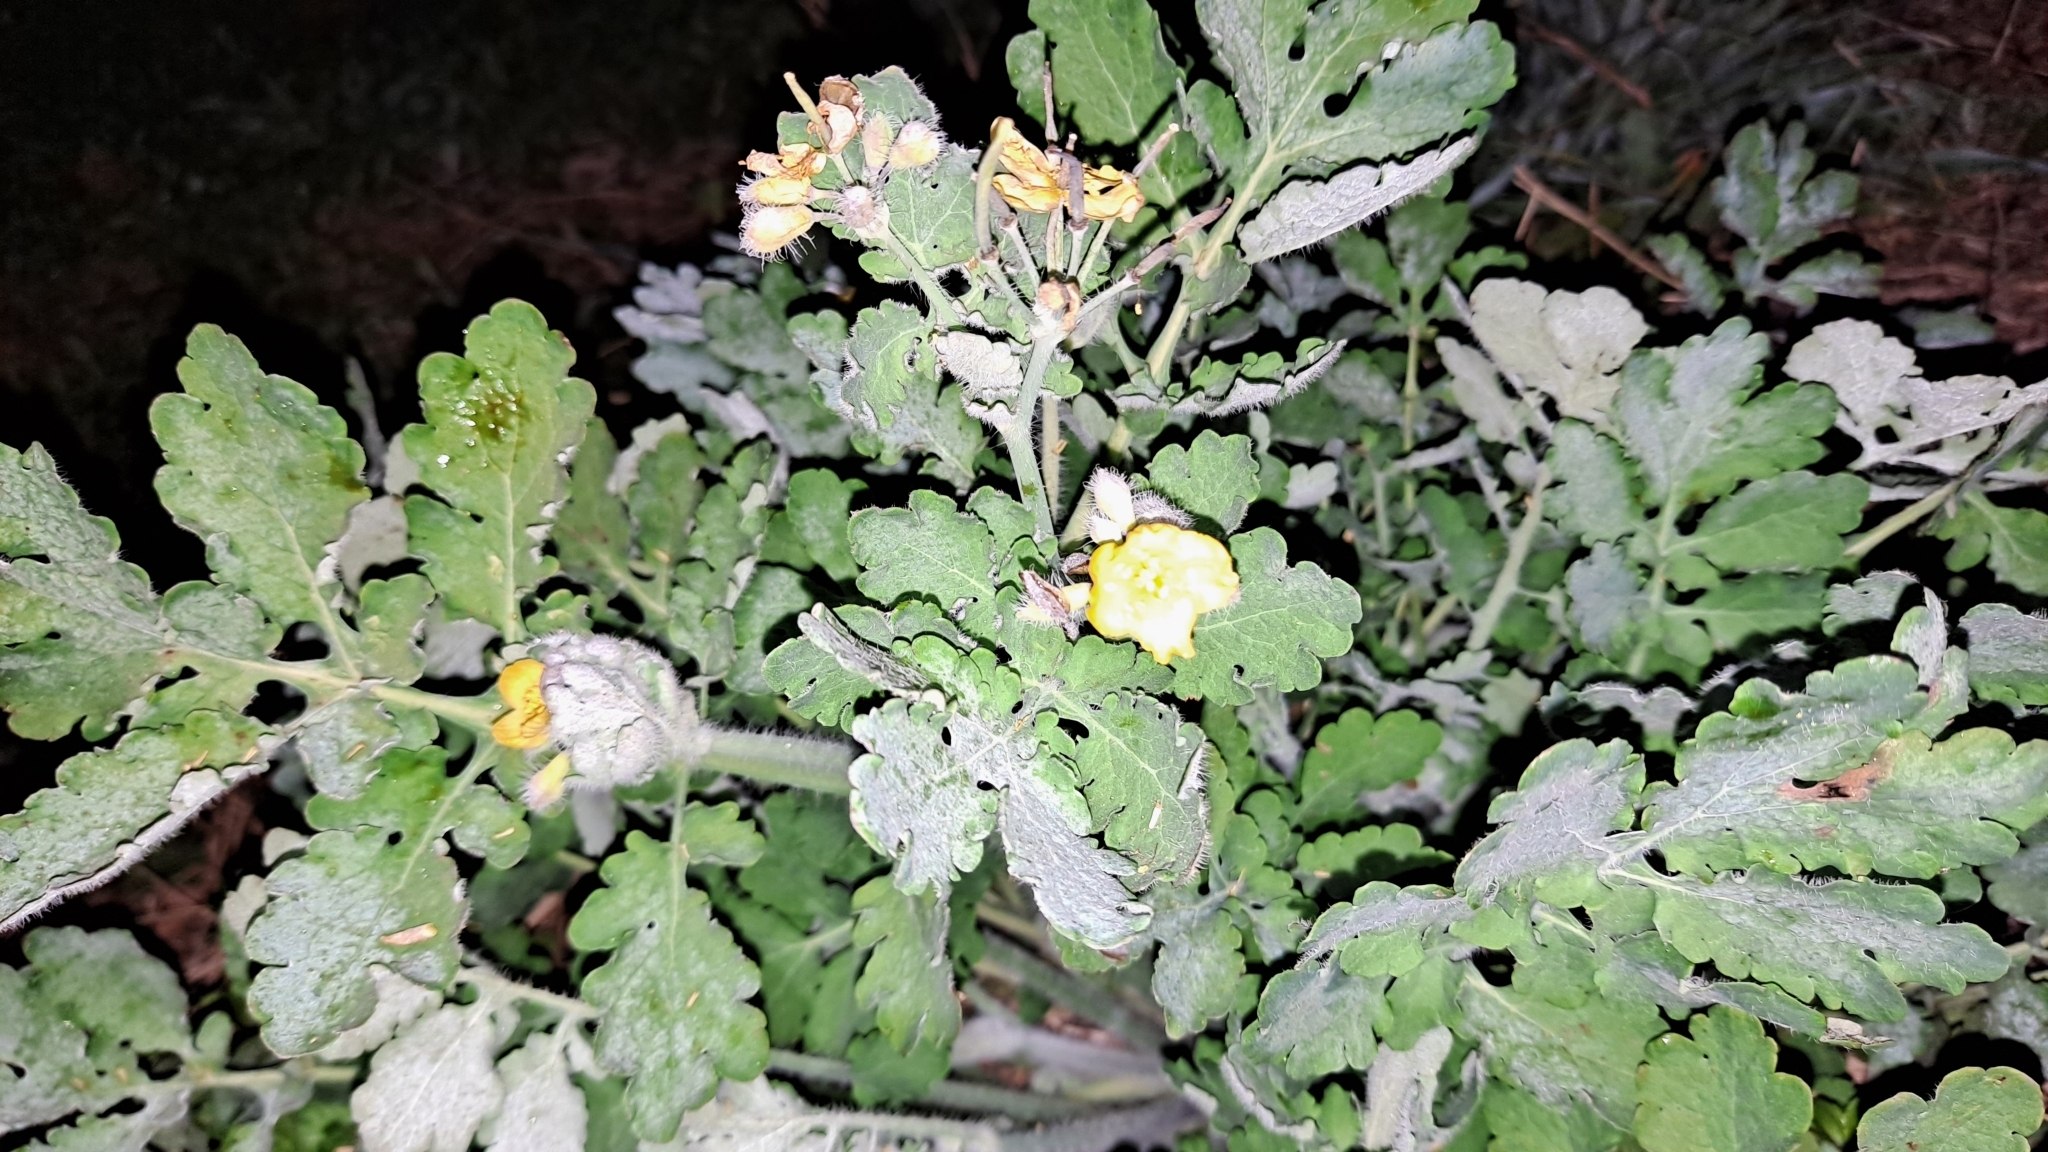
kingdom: Plantae
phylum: Tracheophyta
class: Magnoliopsida
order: Ranunculales
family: Papaveraceae
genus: Chelidonium
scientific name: Chelidonium majus
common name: Greater celandine
